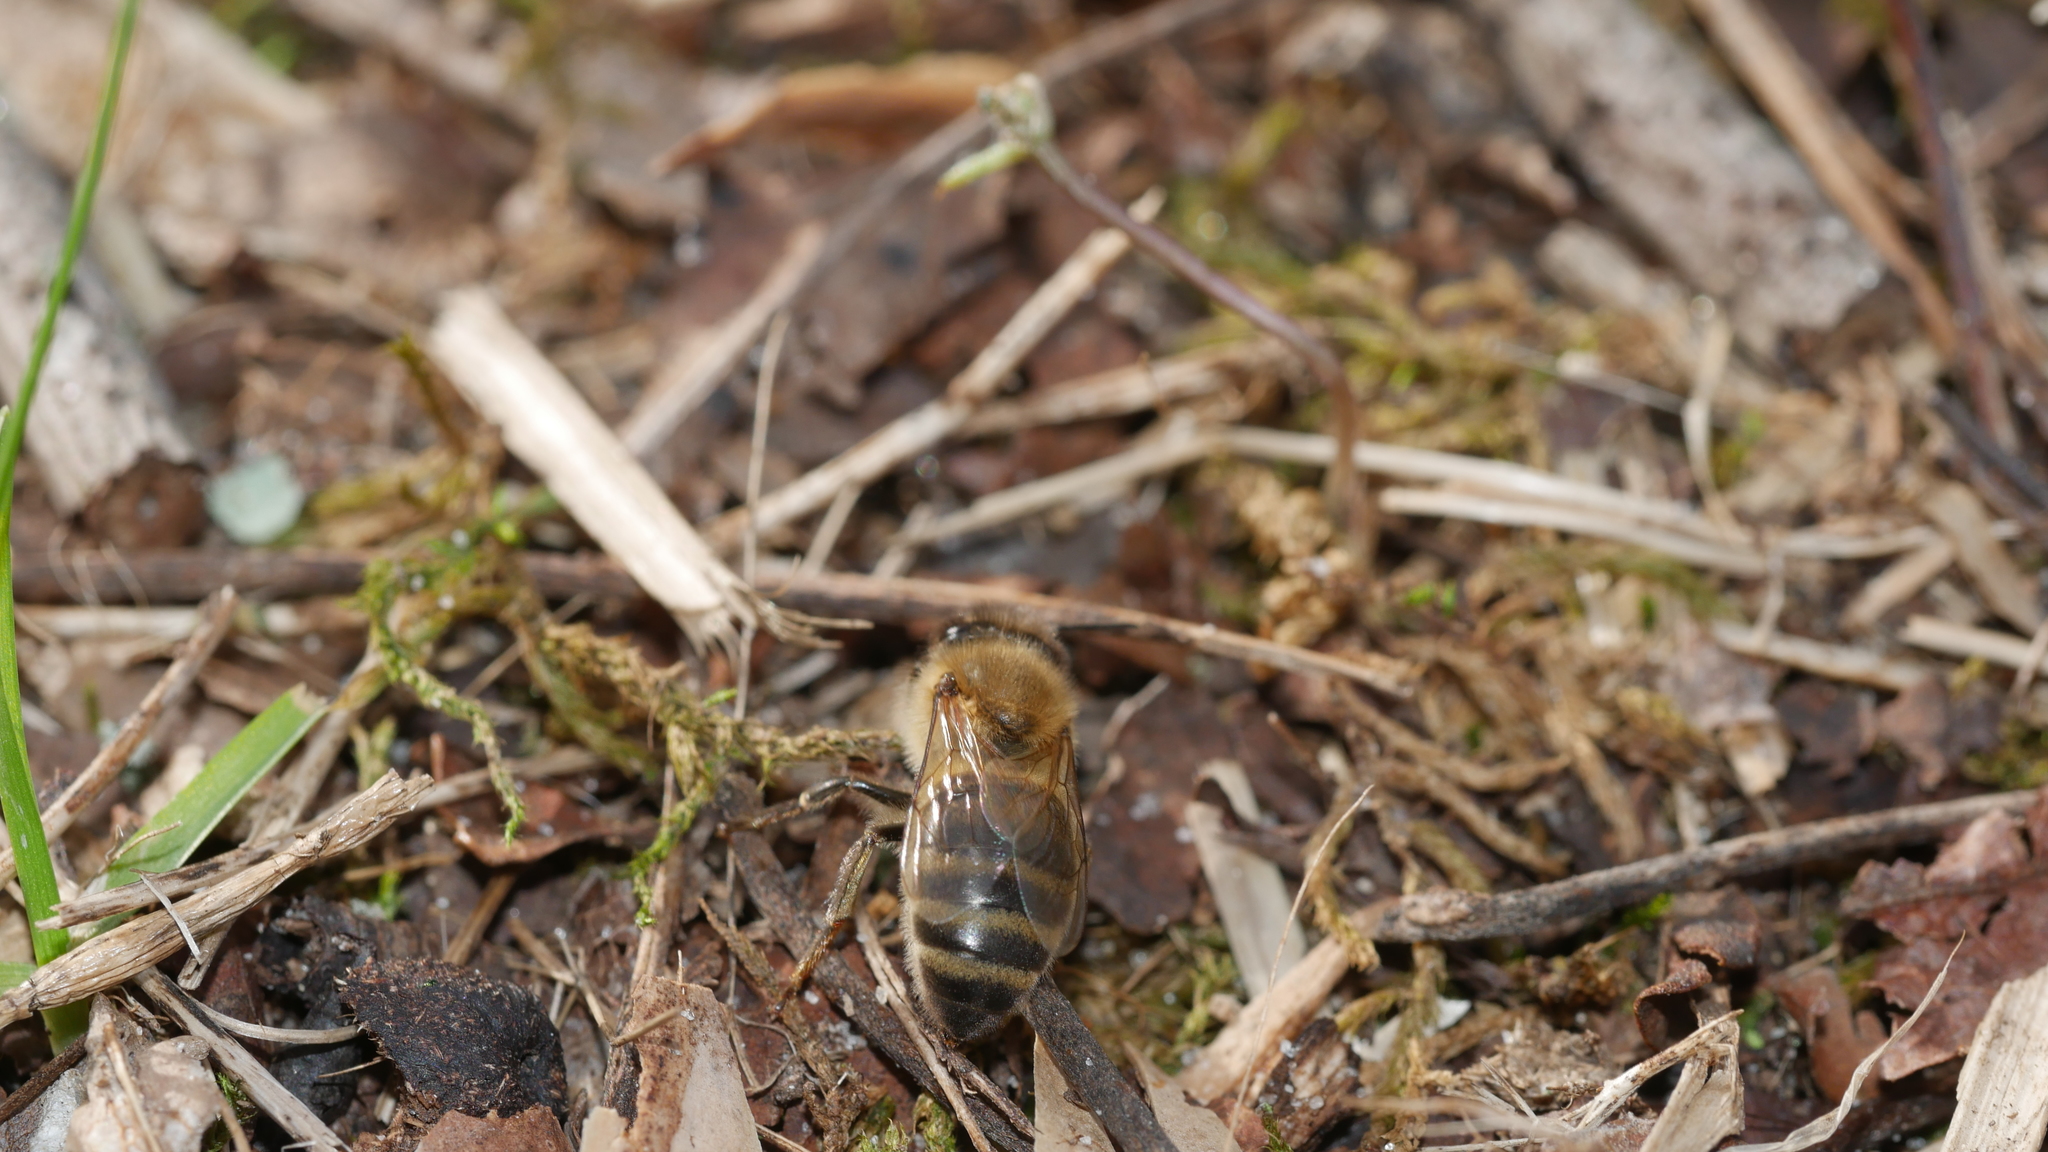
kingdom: Animalia
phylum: Arthropoda
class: Insecta
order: Hymenoptera
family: Apidae
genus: Apis
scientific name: Apis mellifera
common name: Honey bee
